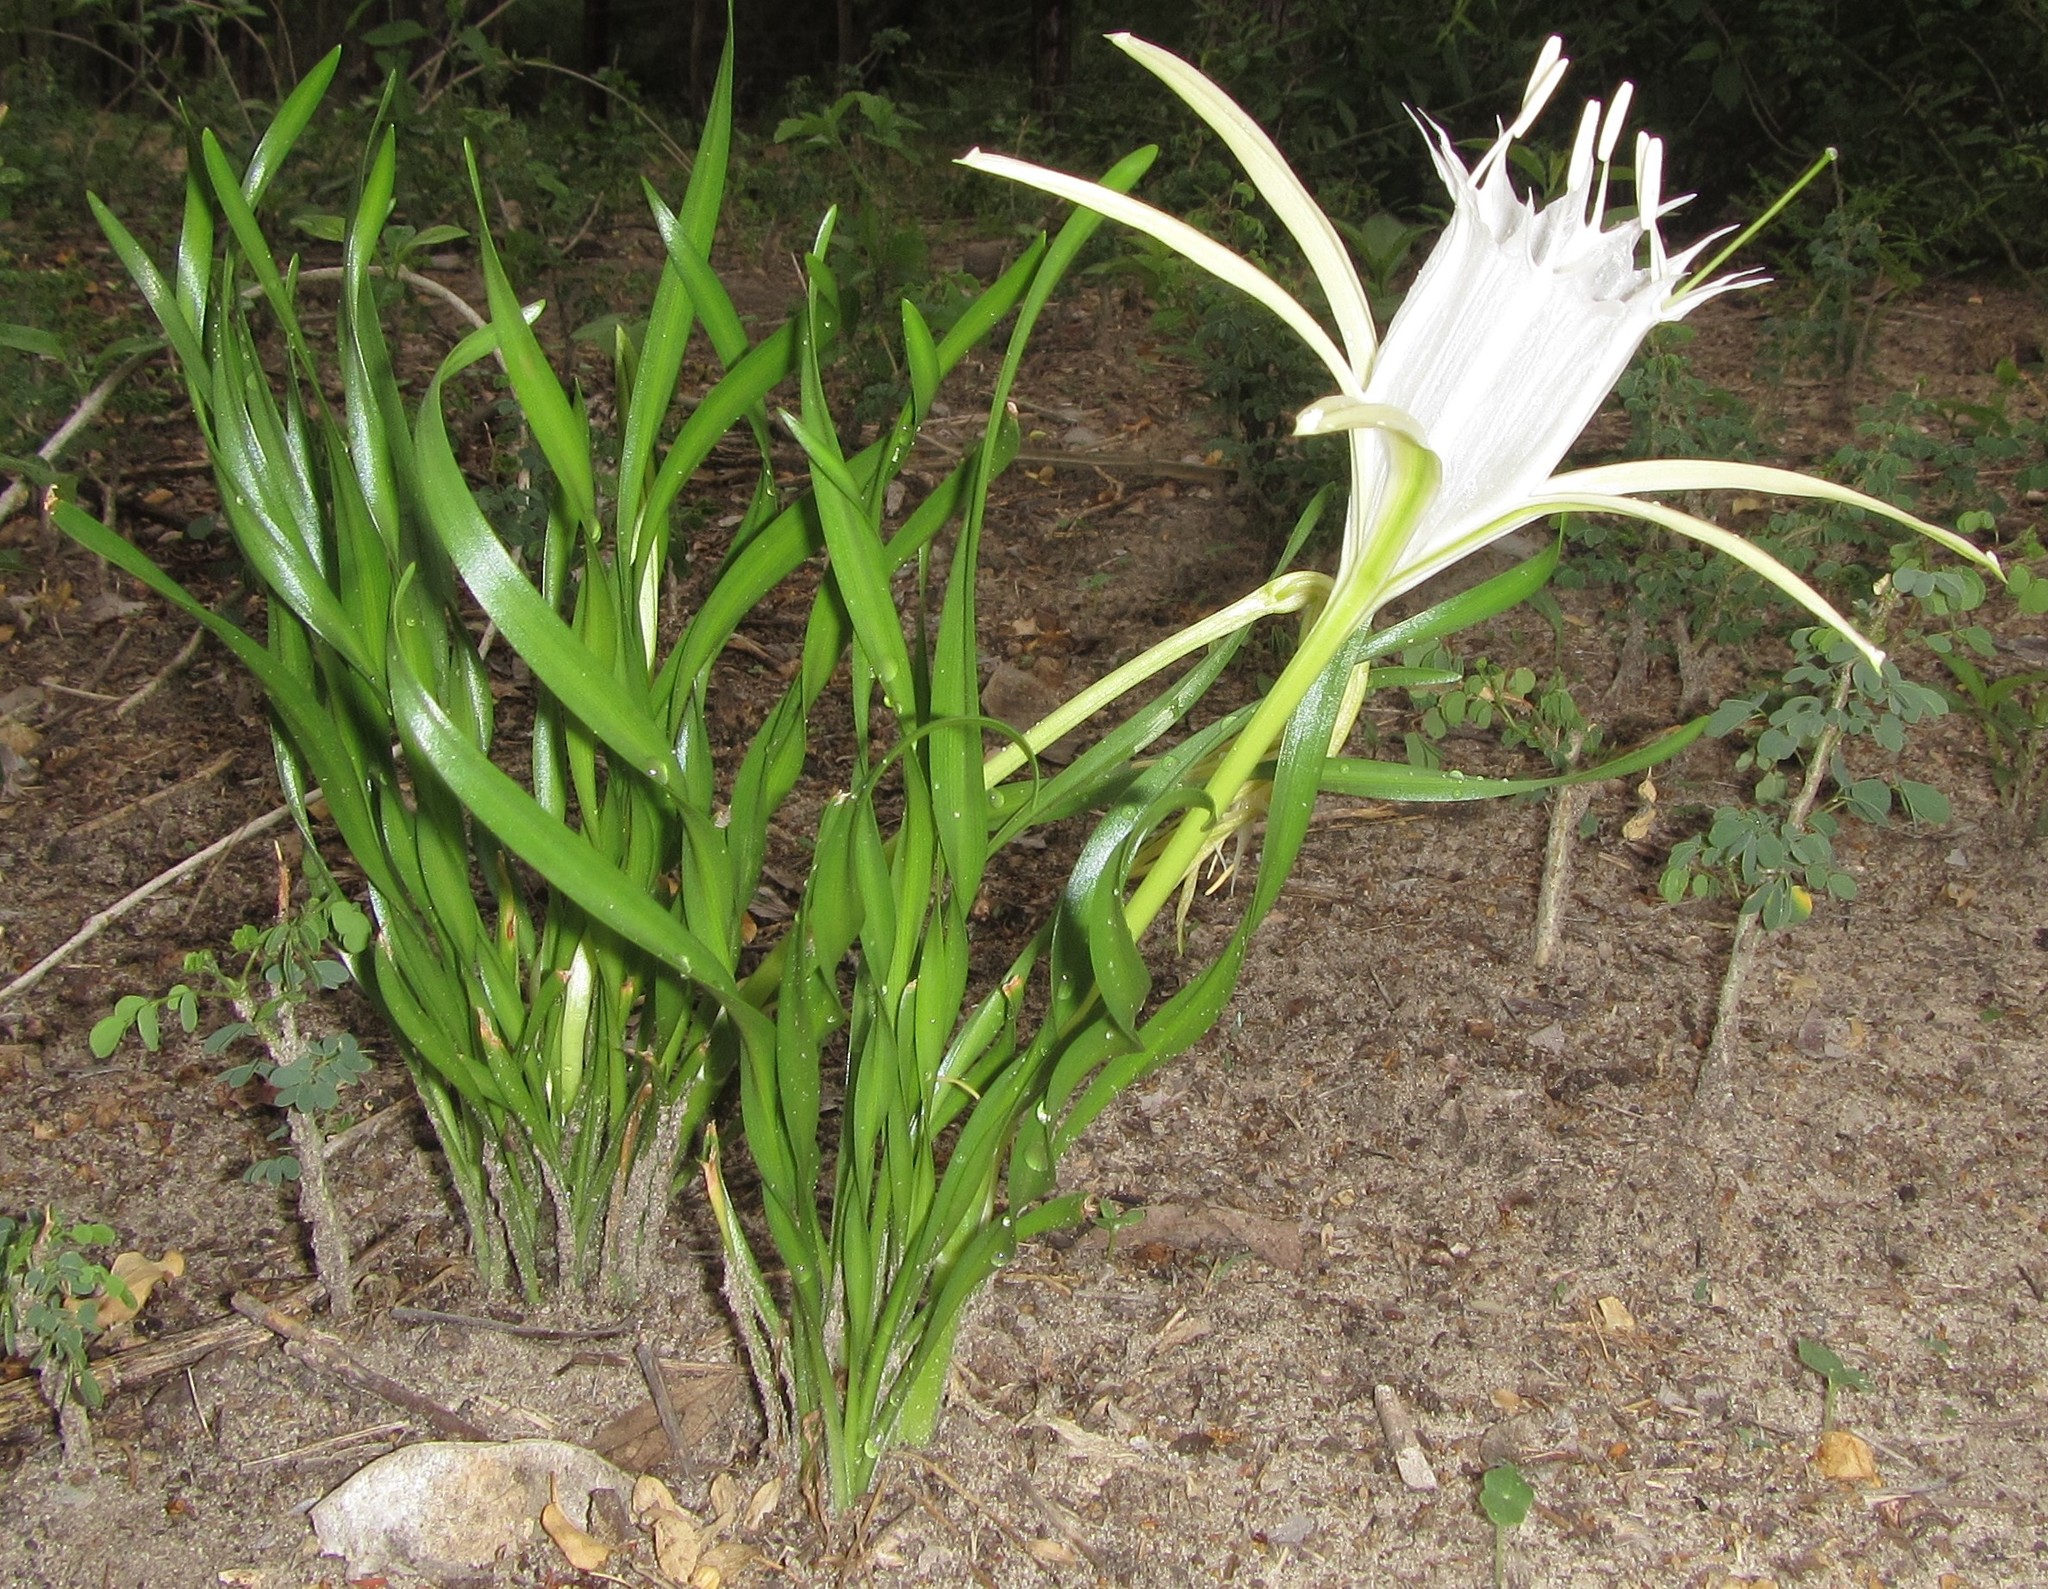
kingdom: Plantae
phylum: Tracheophyta
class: Liliopsida
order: Asparagales
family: Amaryllidaceae
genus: Pancratium
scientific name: Pancratium tenuifolium
